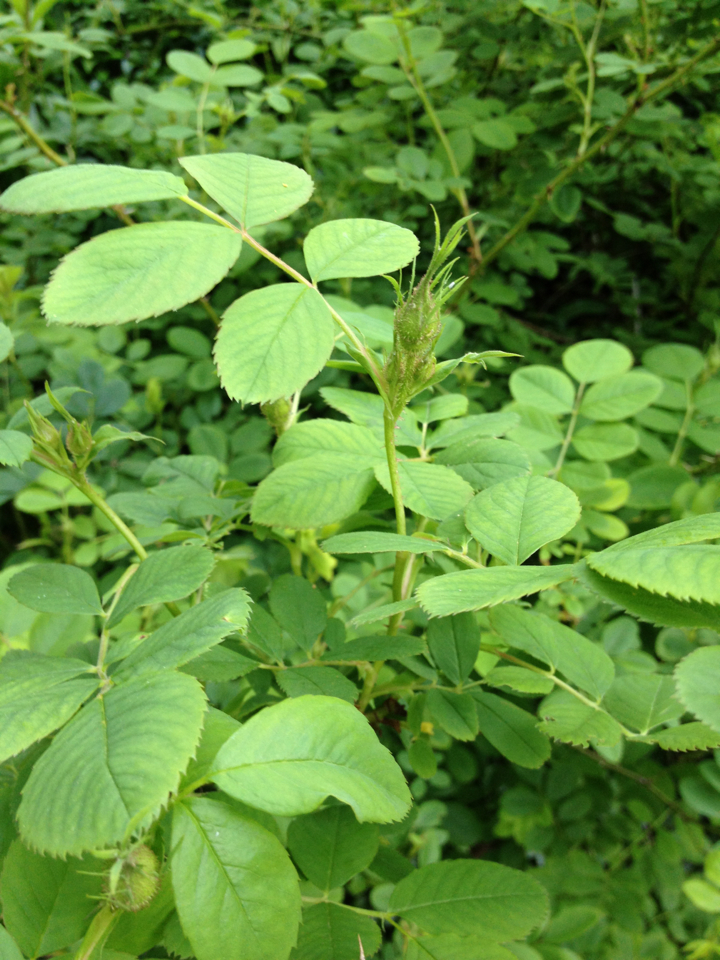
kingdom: Plantae
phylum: Tracheophyta
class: Magnoliopsida
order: Rosales
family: Rosaceae
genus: Rosa
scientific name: Rosa
